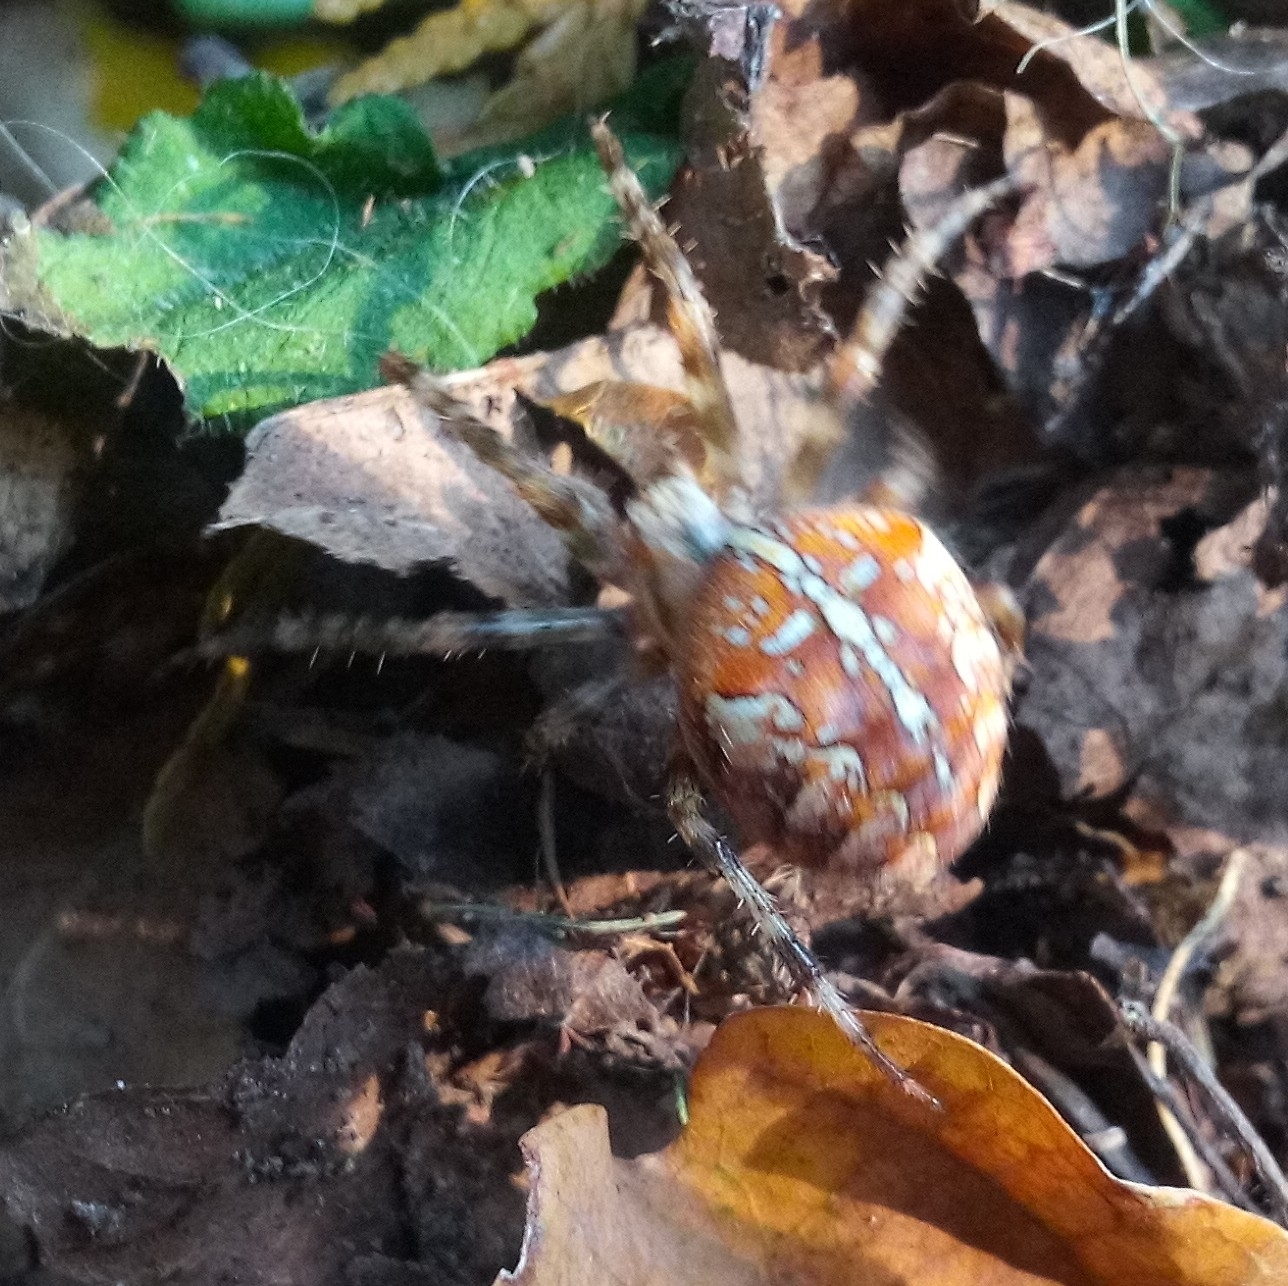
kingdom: Animalia
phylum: Arthropoda
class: Arachnida
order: Araneae
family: Araneidae
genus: Araneus
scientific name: Araneus diadematus
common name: Cross orbweaver
